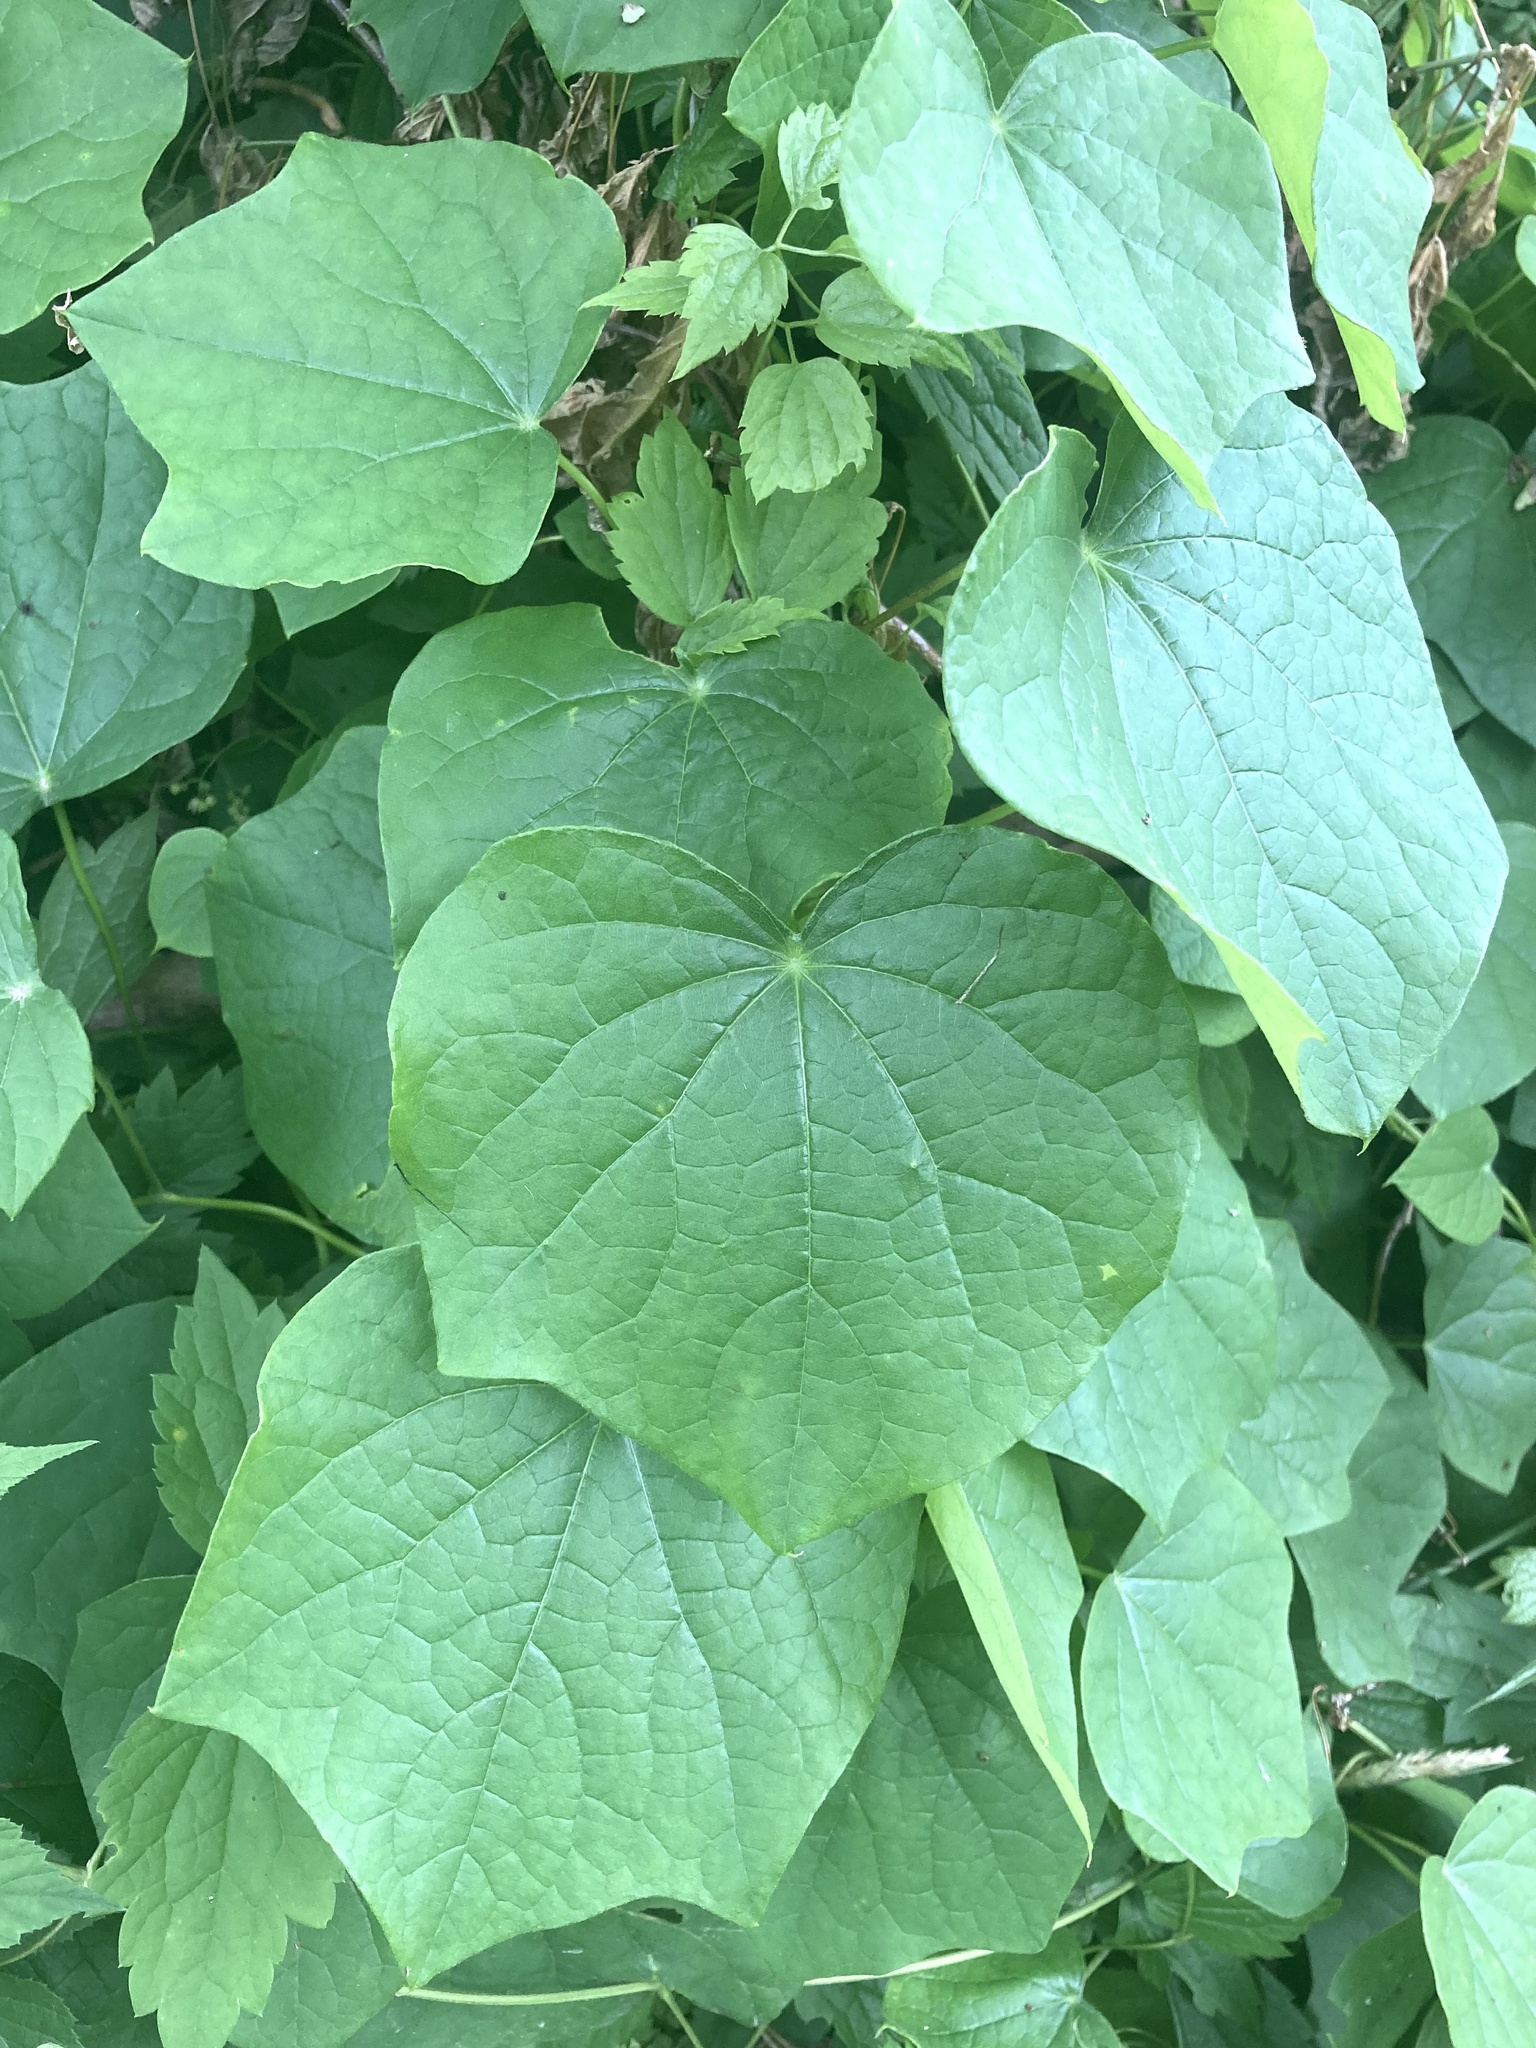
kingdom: Plantae
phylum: Tracheophyta
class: Magnoliopsida
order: Ranunculales
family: Menispermaceae
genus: Menispermum
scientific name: Menispermum canadense
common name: Moonseed
